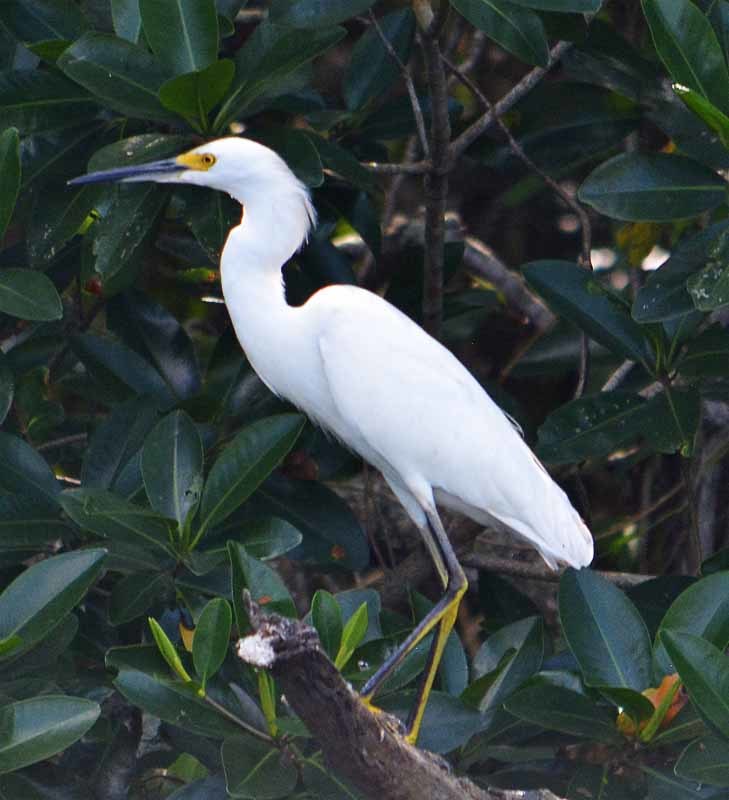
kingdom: Animalia
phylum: Chordata
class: Aves
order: Pelecaniformes
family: Ardeidae
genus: Egretta
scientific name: Egretta thula
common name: Snowy egret
